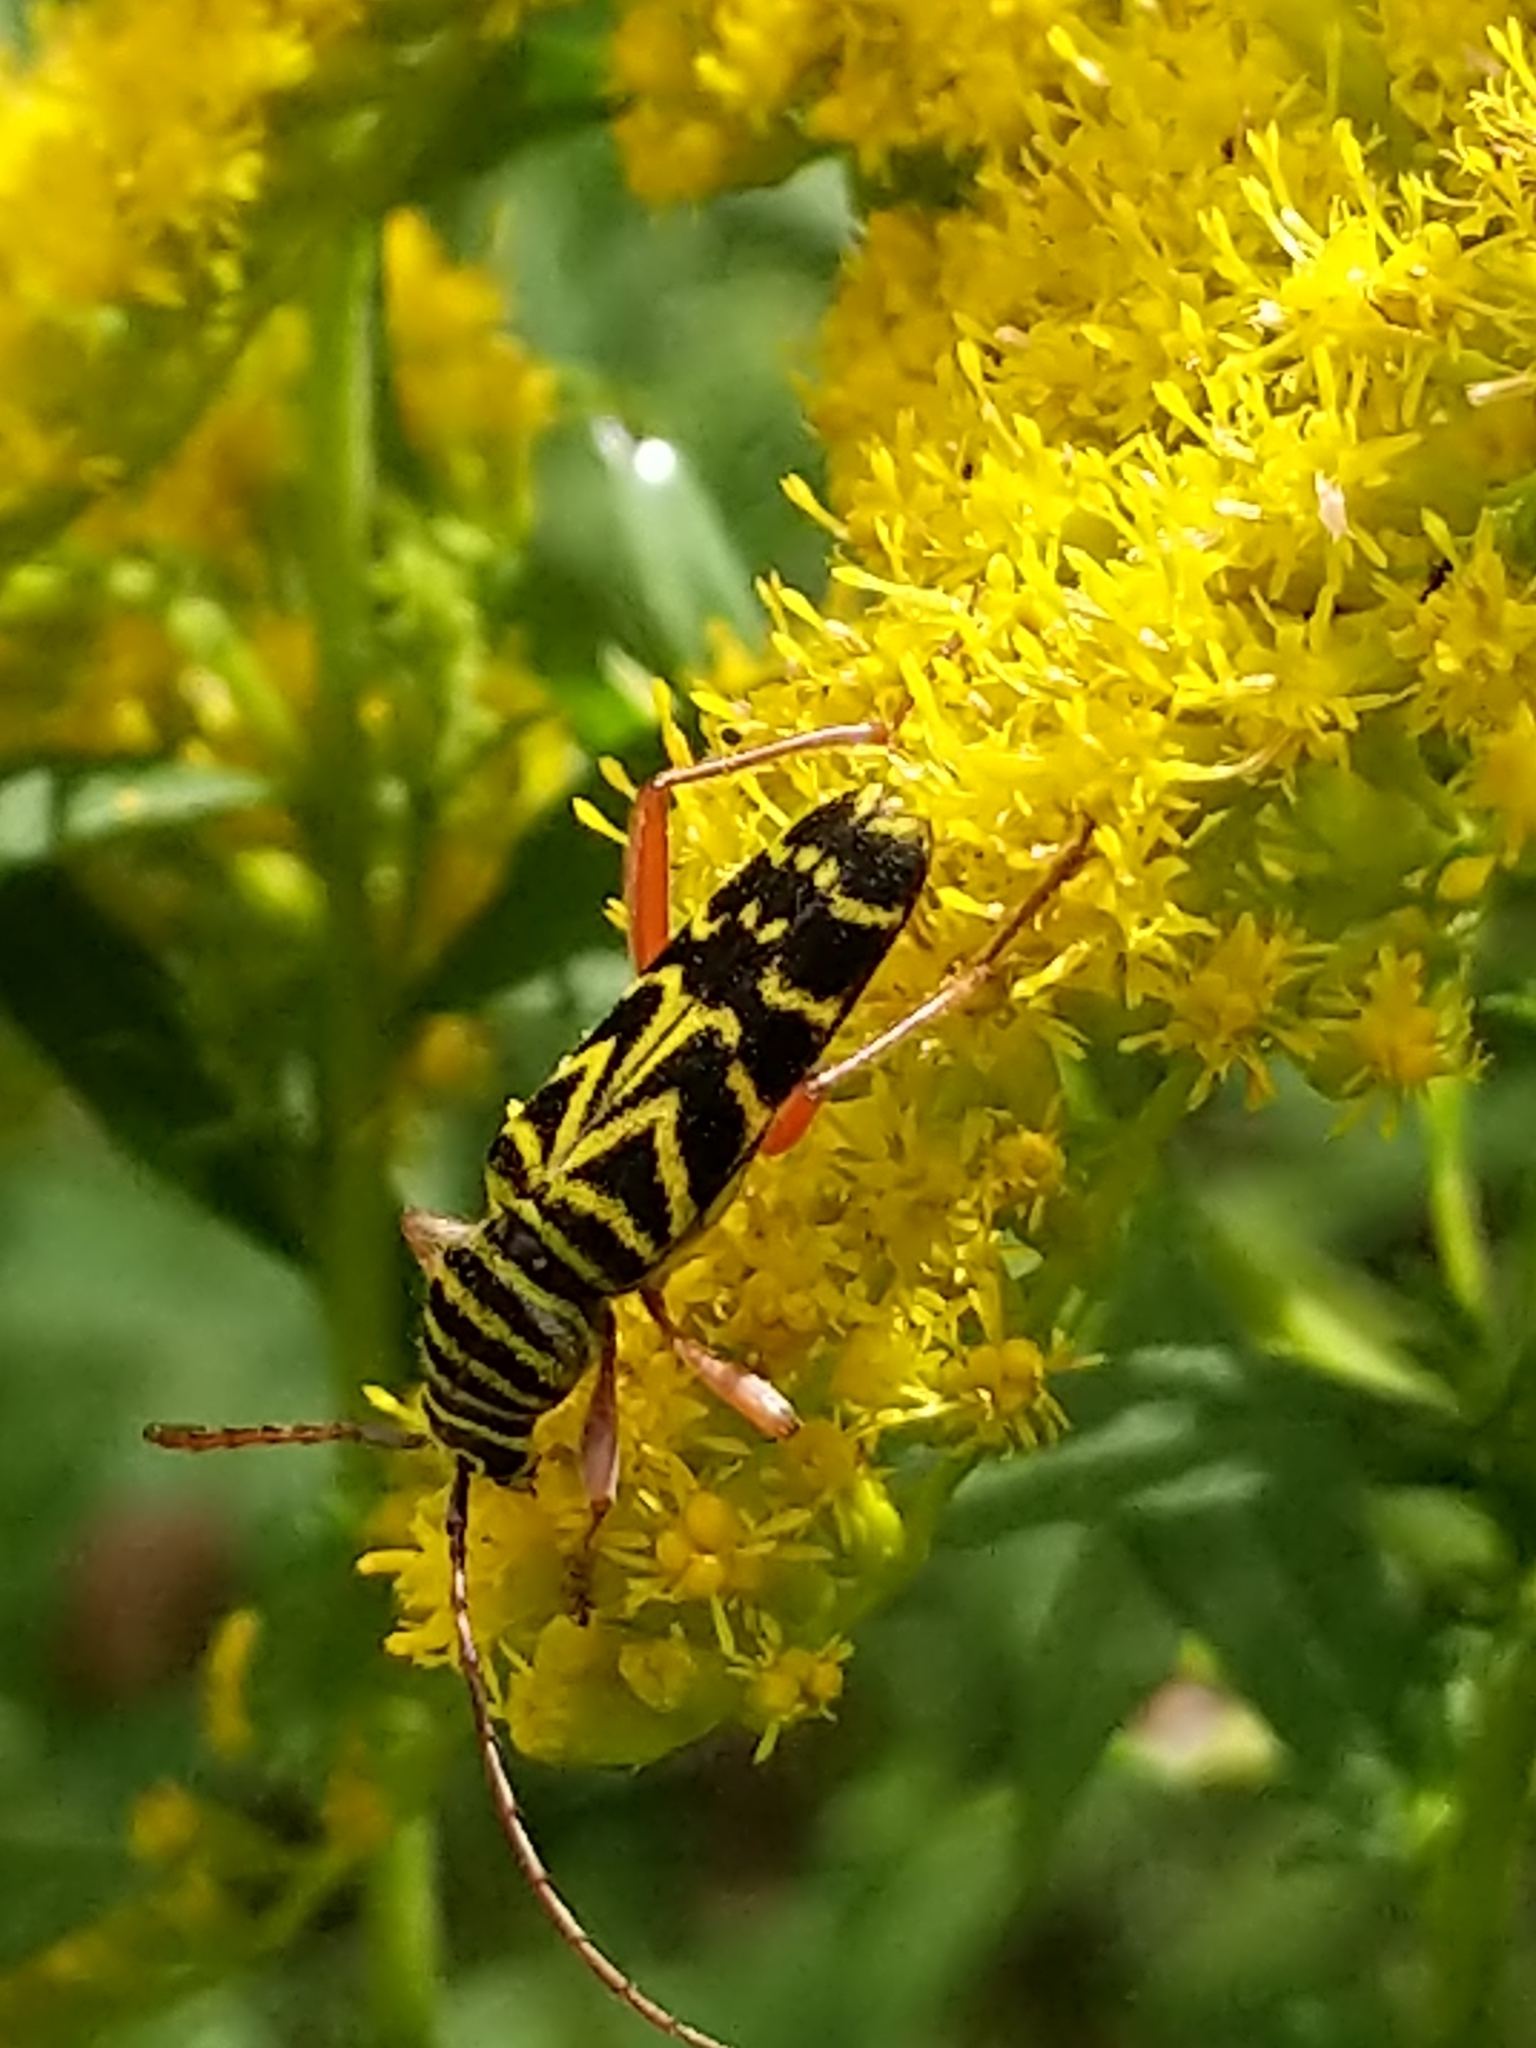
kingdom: Animalia
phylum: Arthropoda
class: Insecta
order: Coleoptera
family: Cerambycidae
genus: Megacyllene
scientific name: Megacyllene robiniae
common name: Locust borer
